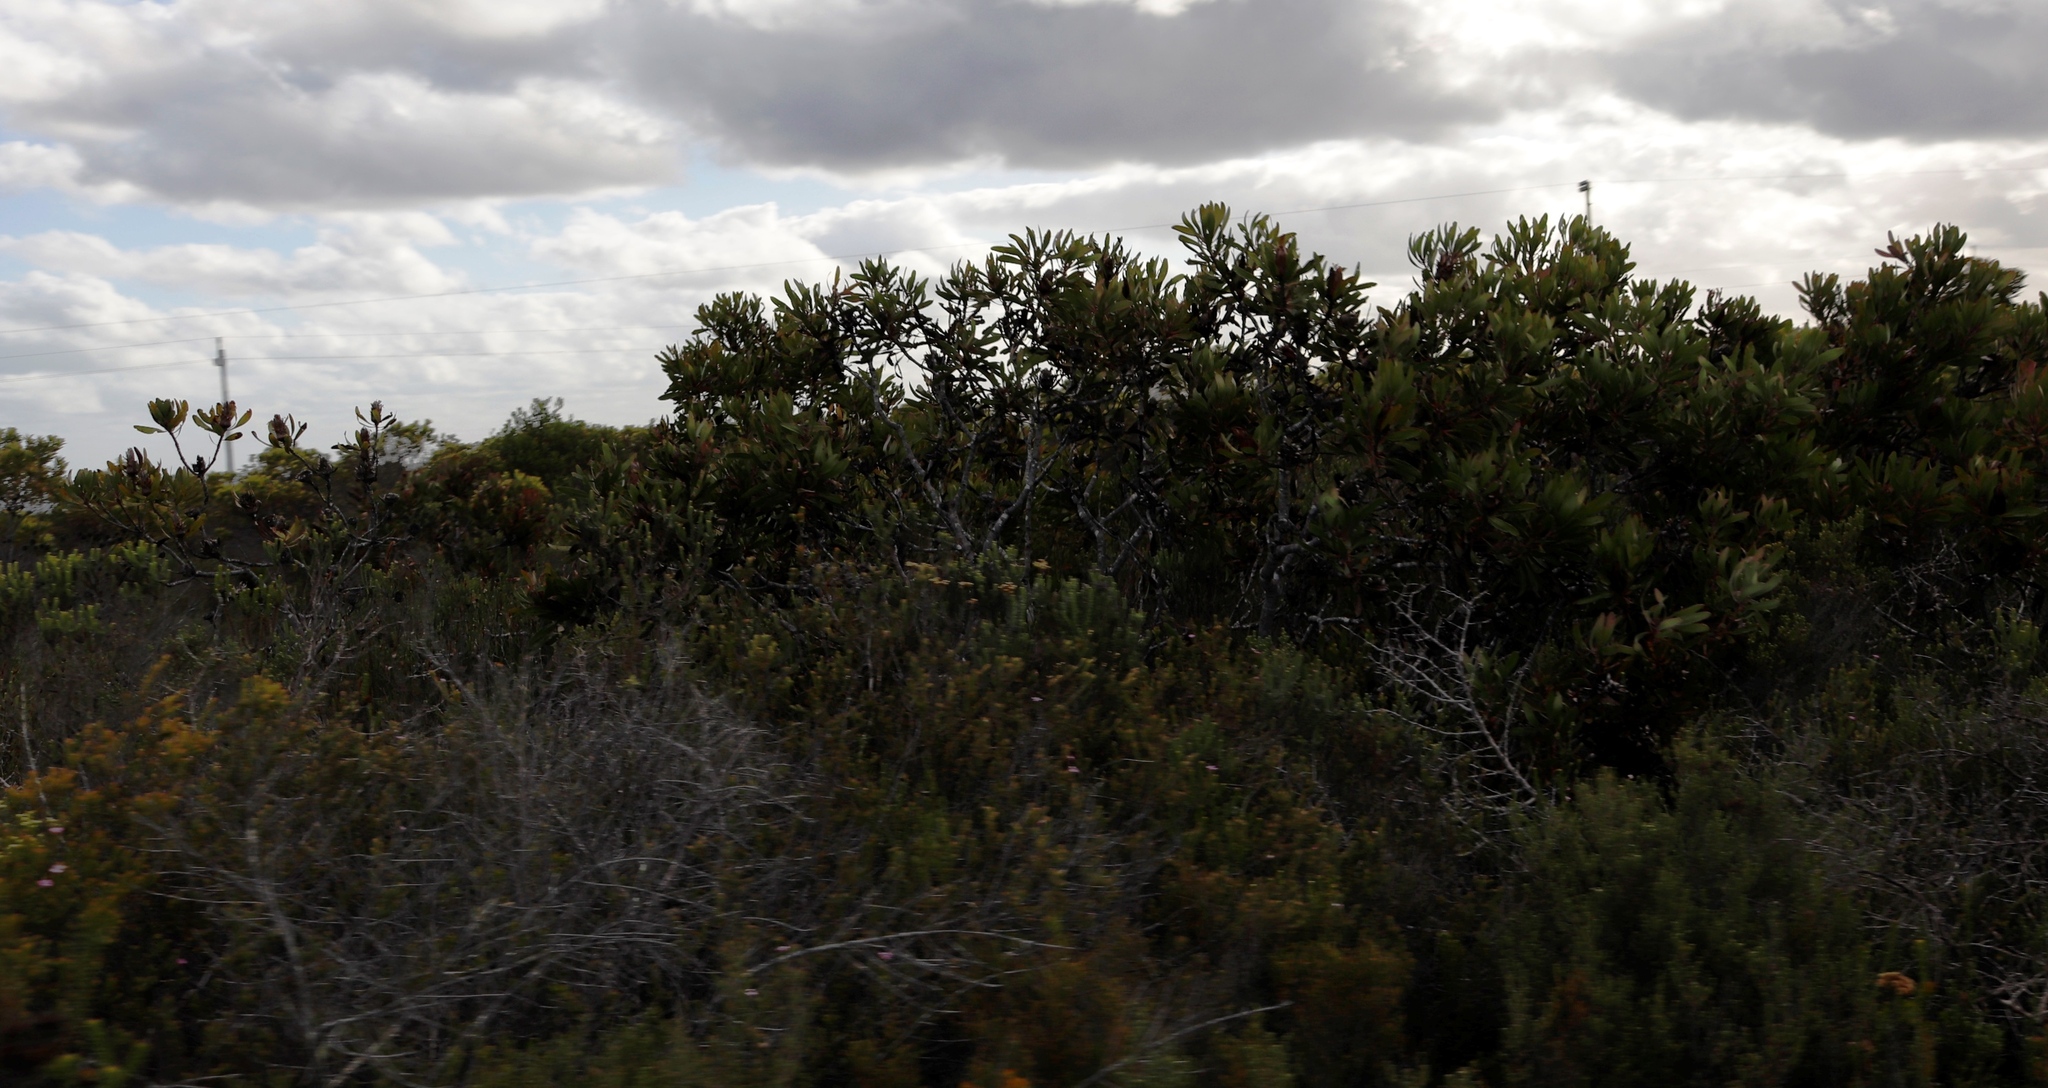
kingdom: Plantae
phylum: Tracheophyta
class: Magnoliopsida
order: Proteales
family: Proteaceae
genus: Protea
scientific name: Protea obtusifolia
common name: Bredasdorp sugarbush
